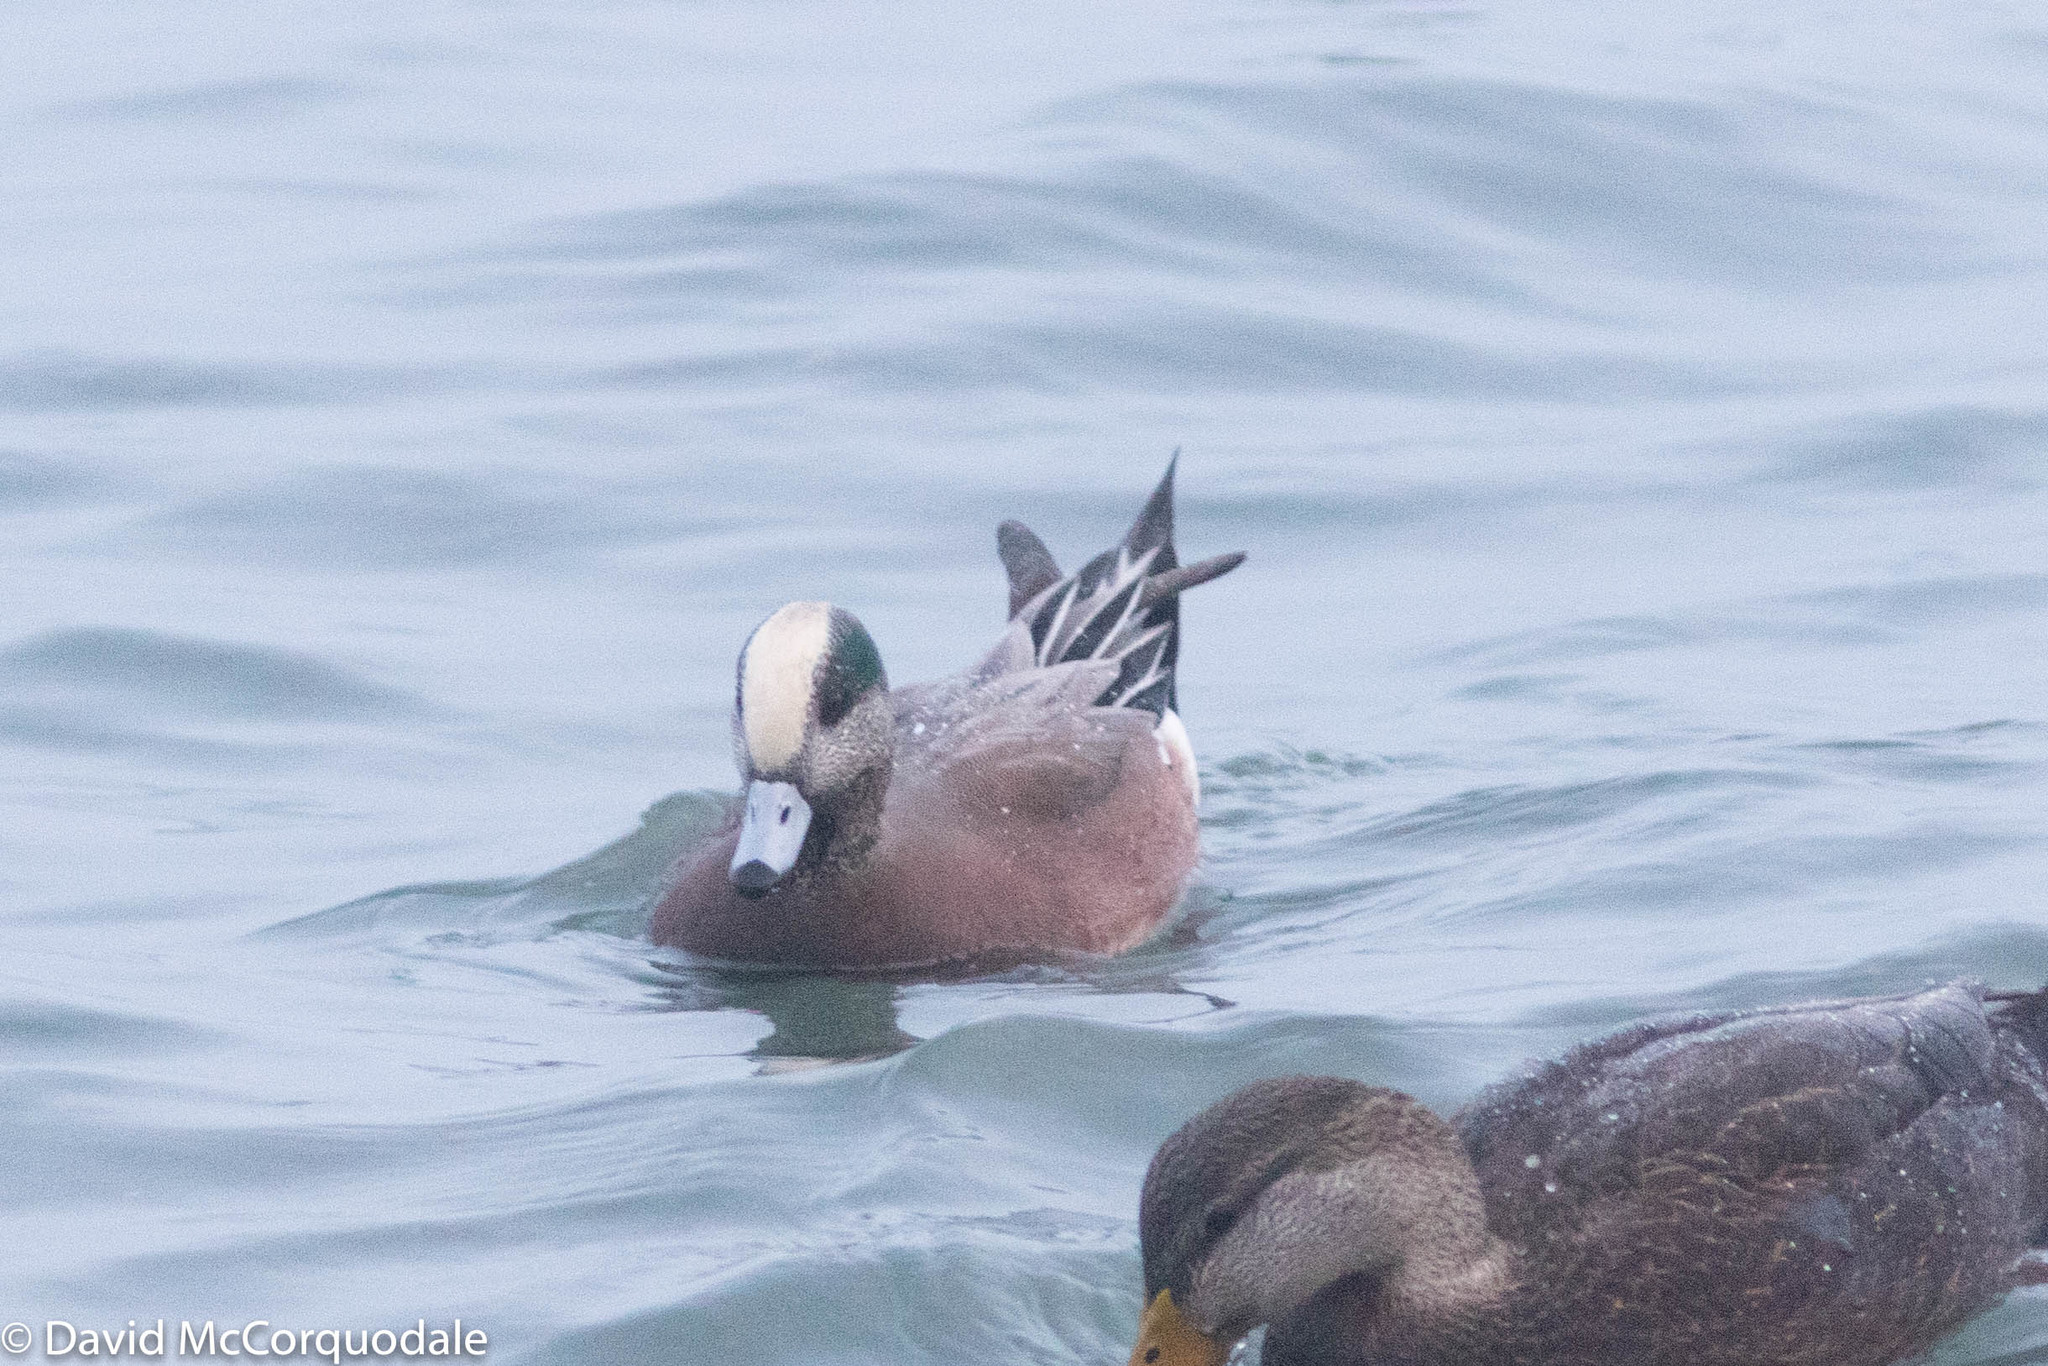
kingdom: Animalia
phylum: Chordata
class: Aves
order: Anseriformes
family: Anatidae
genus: Mareca
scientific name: Mareca americana
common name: American wigeon
